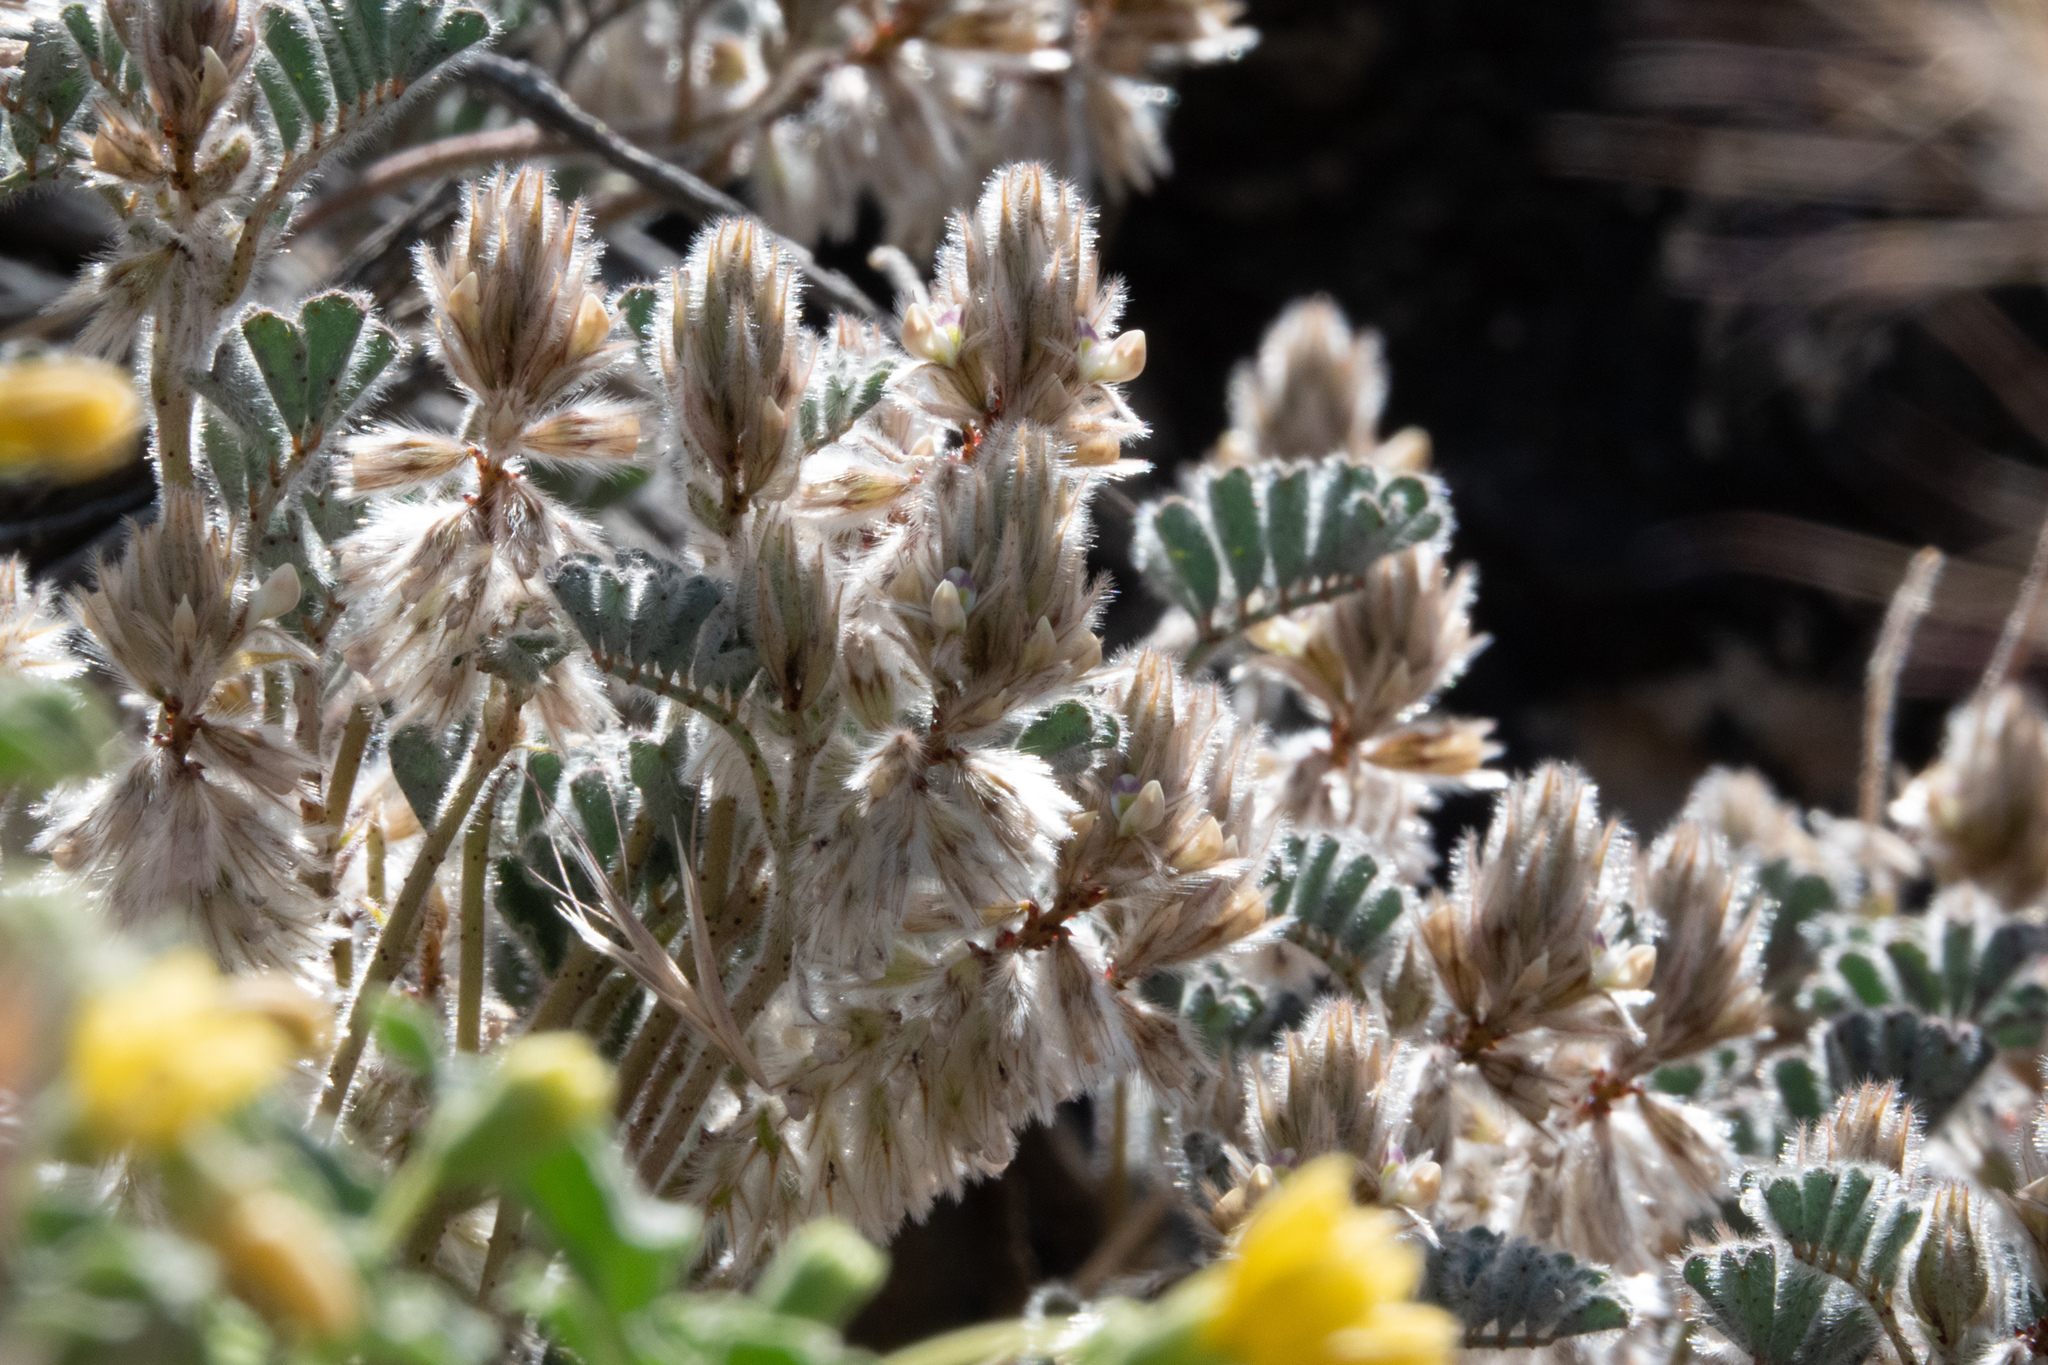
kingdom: Plantae
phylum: Tracheophyta
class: Magnoliopsida
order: Fabales
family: Fabaceae
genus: Dalea
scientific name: Dalea mollissima
